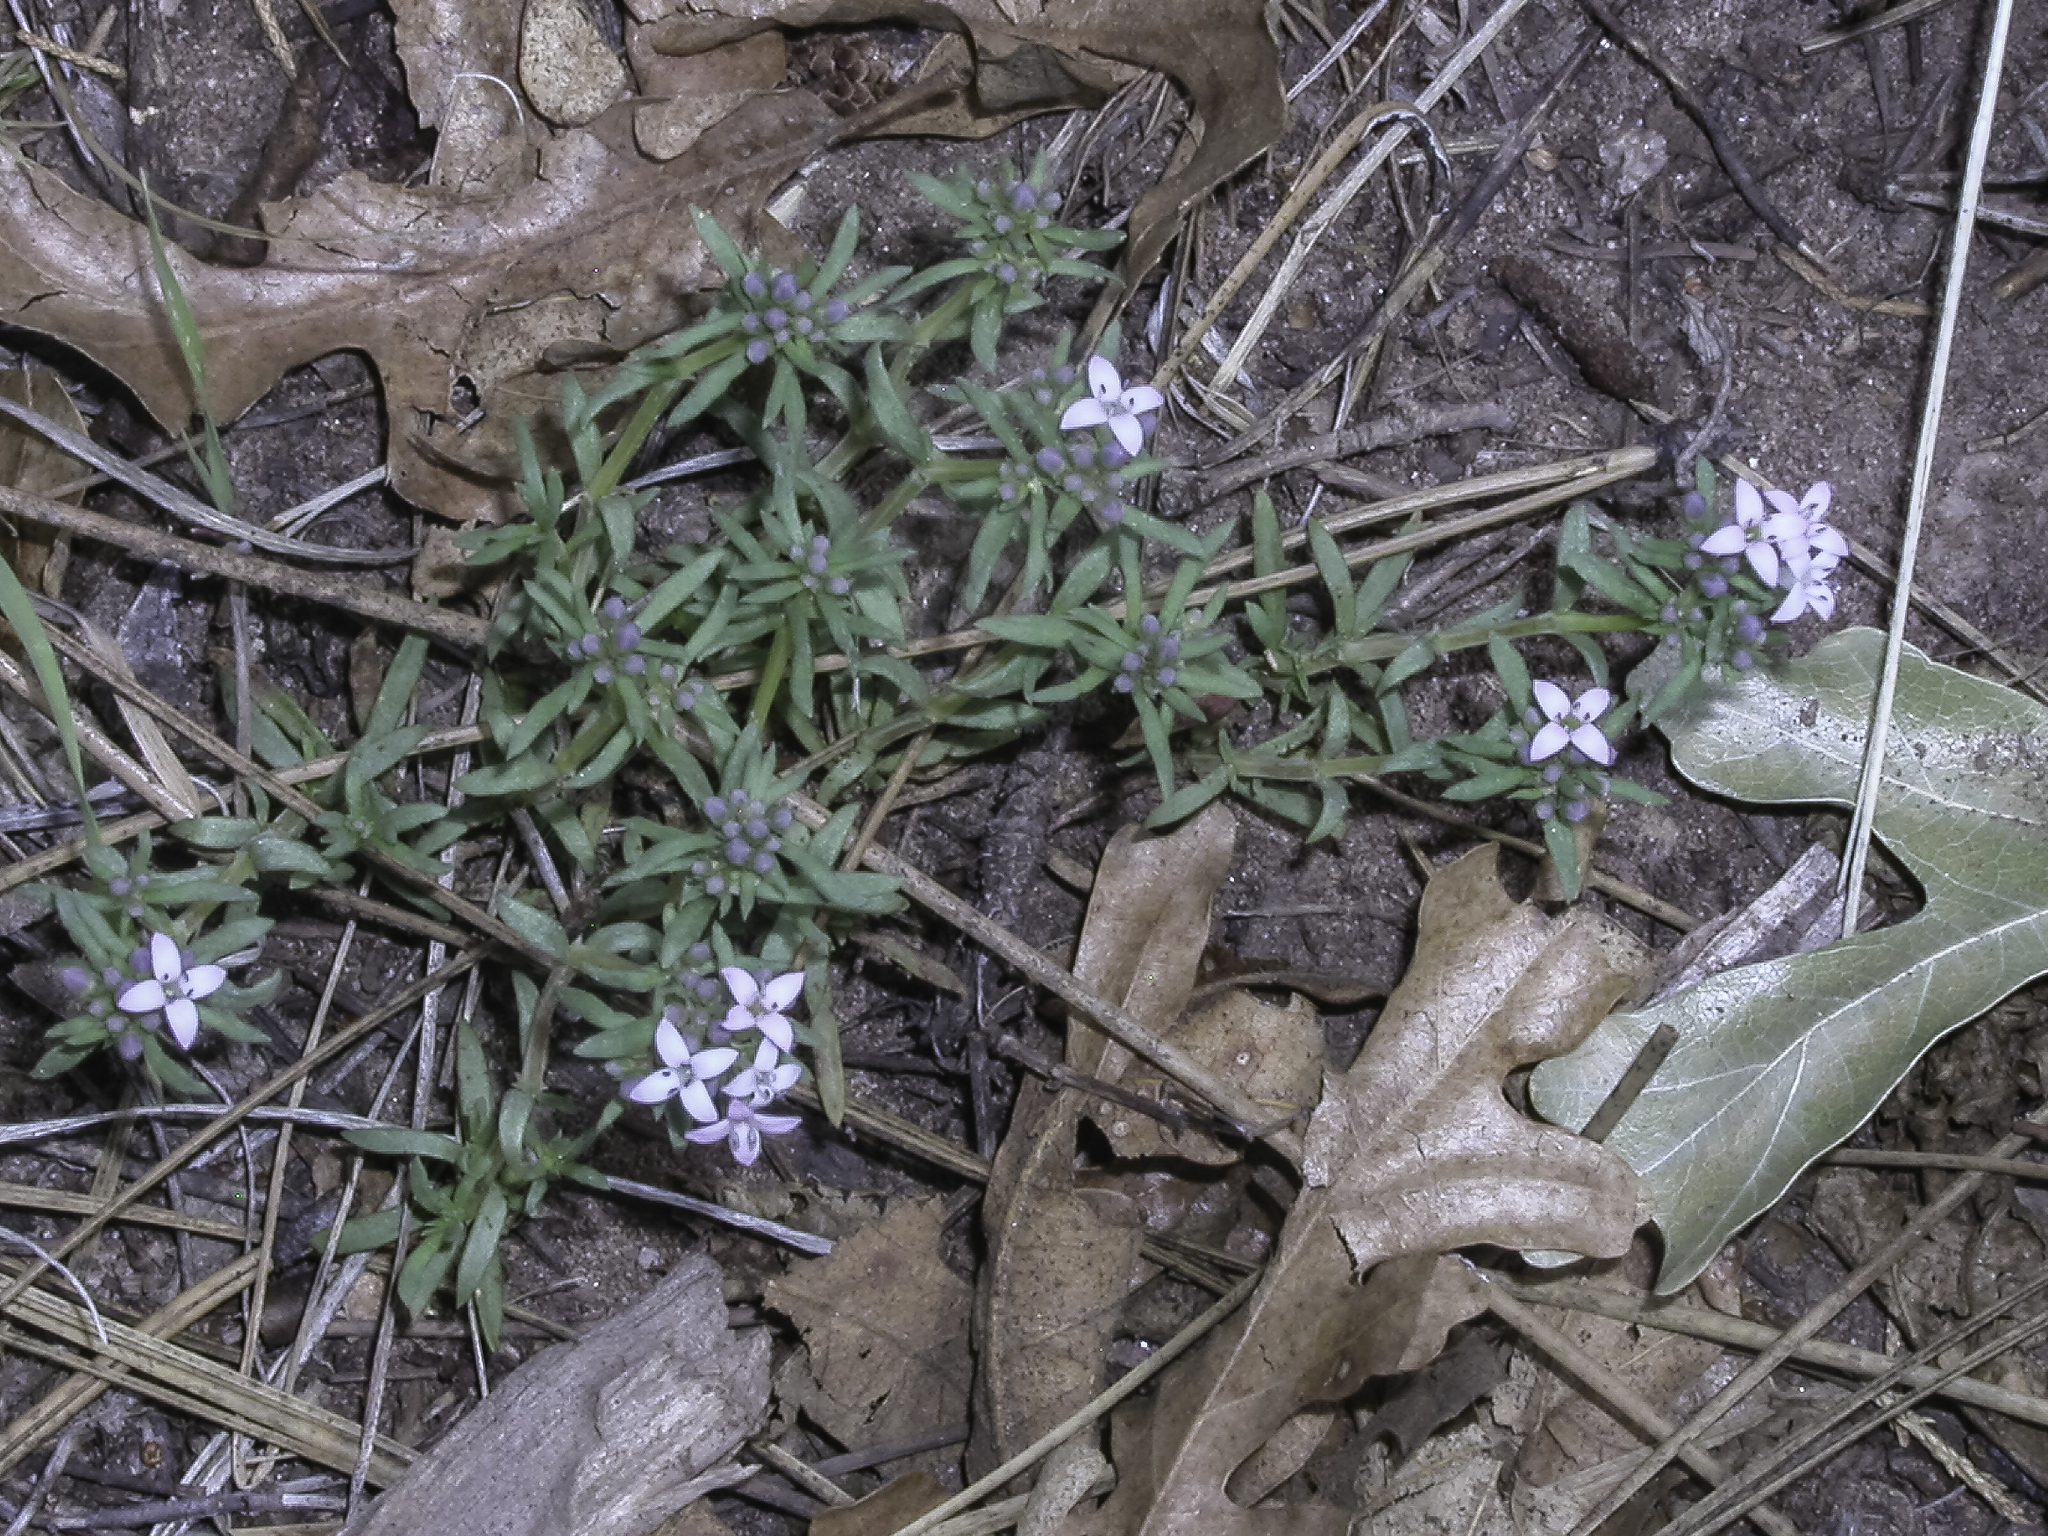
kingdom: Plantae
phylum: Tracheophyta
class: Magnoliopsida
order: Gentianales
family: Rubiaceae
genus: Houstonia
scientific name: Houstonia wrightii
